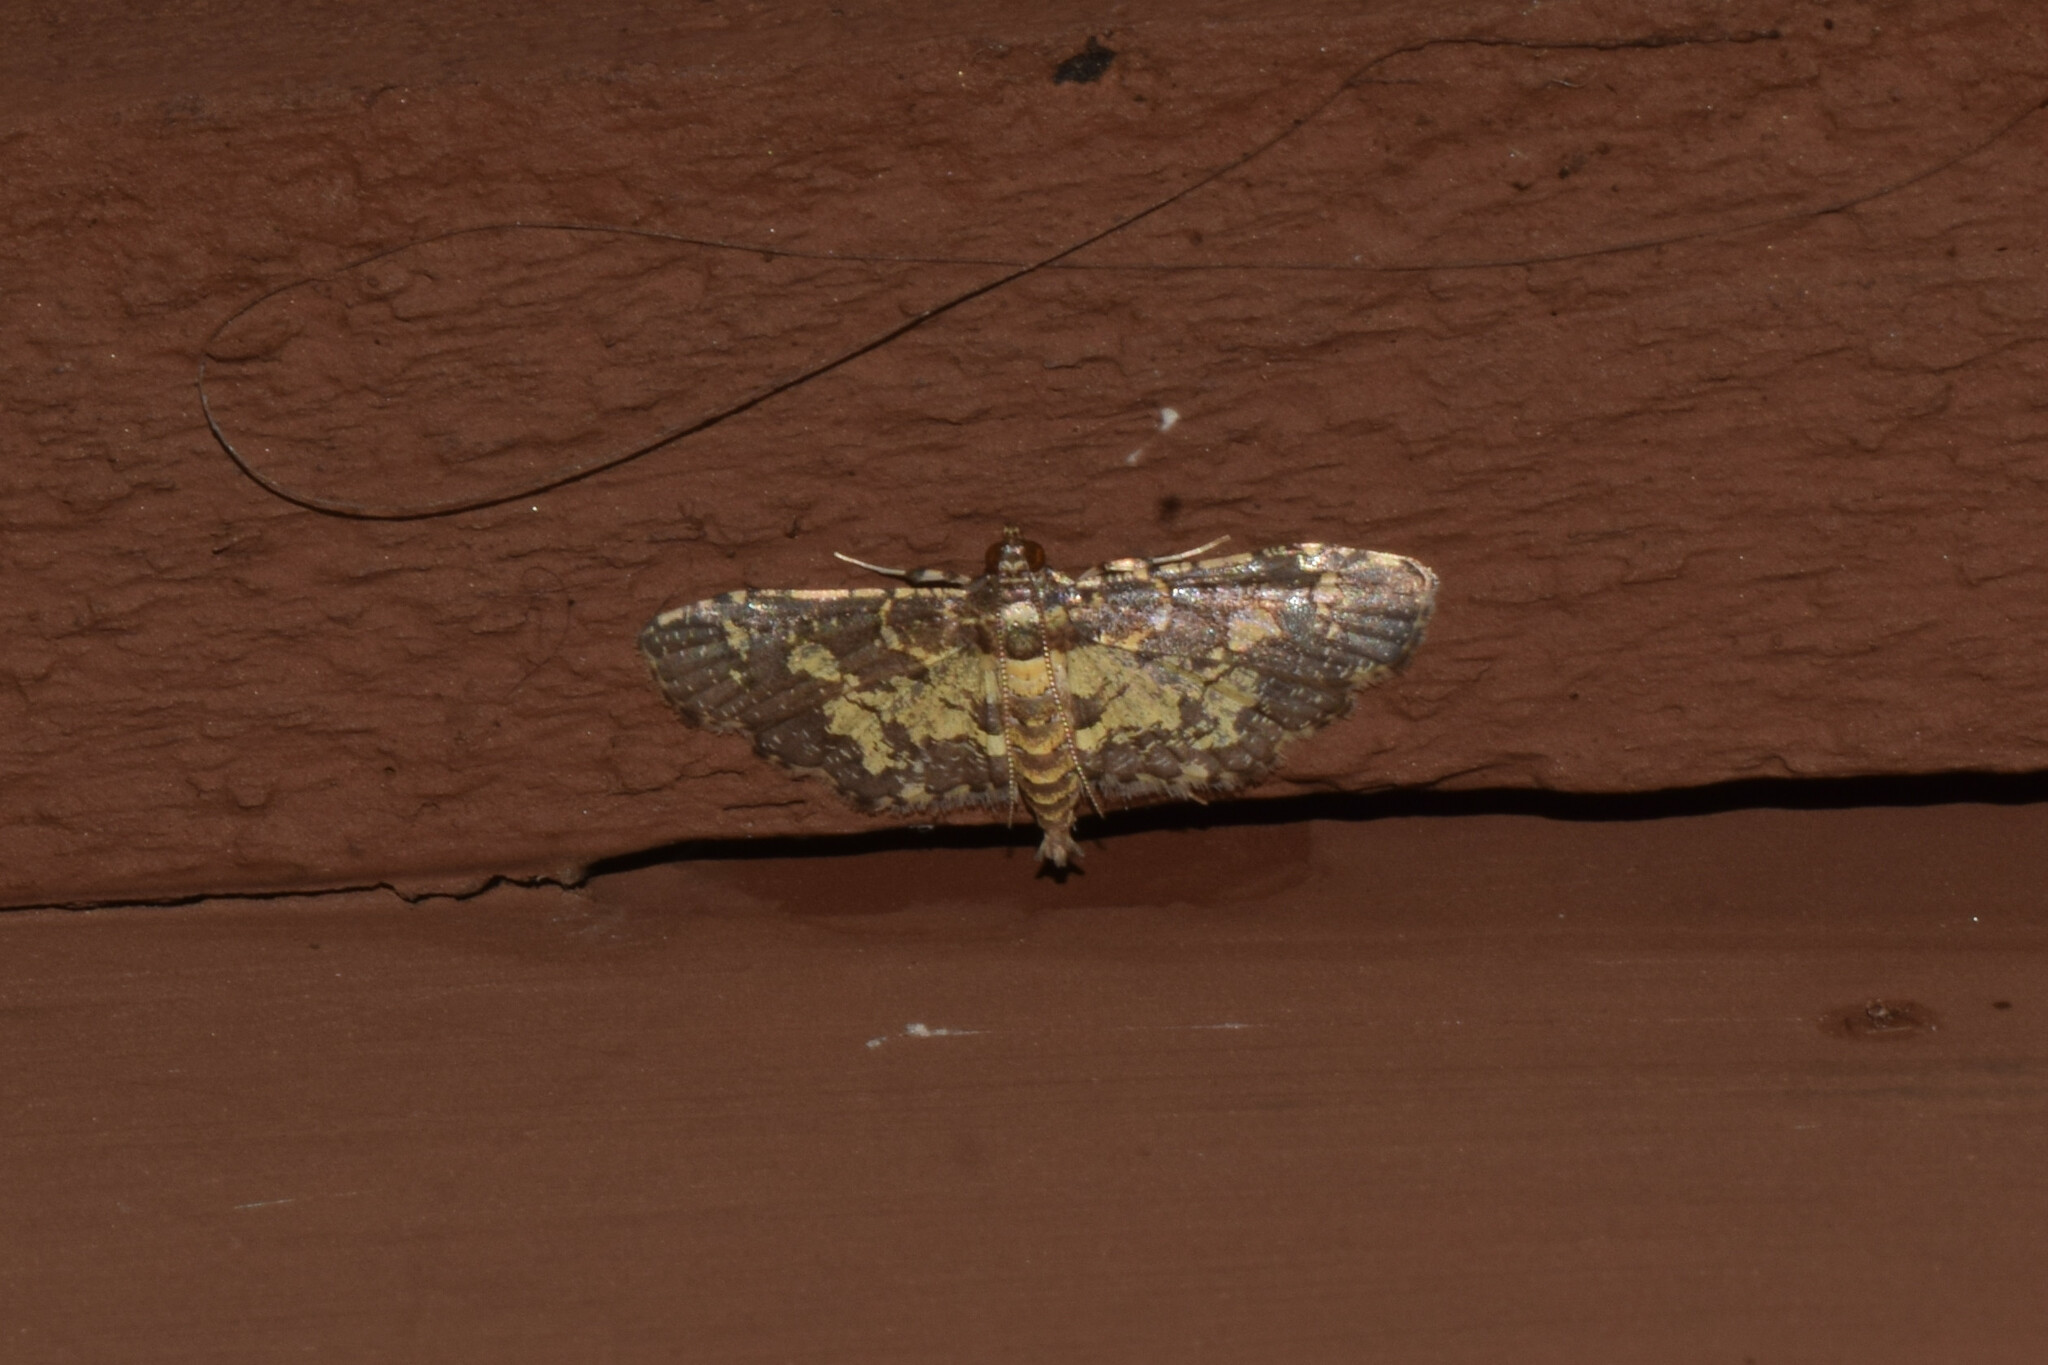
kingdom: Animalia
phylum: Arthropoda
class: Insecta
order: Lepidoptera
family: Crambidae
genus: Eurrhyparodes
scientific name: Eurrhyparodes bracteolalis
